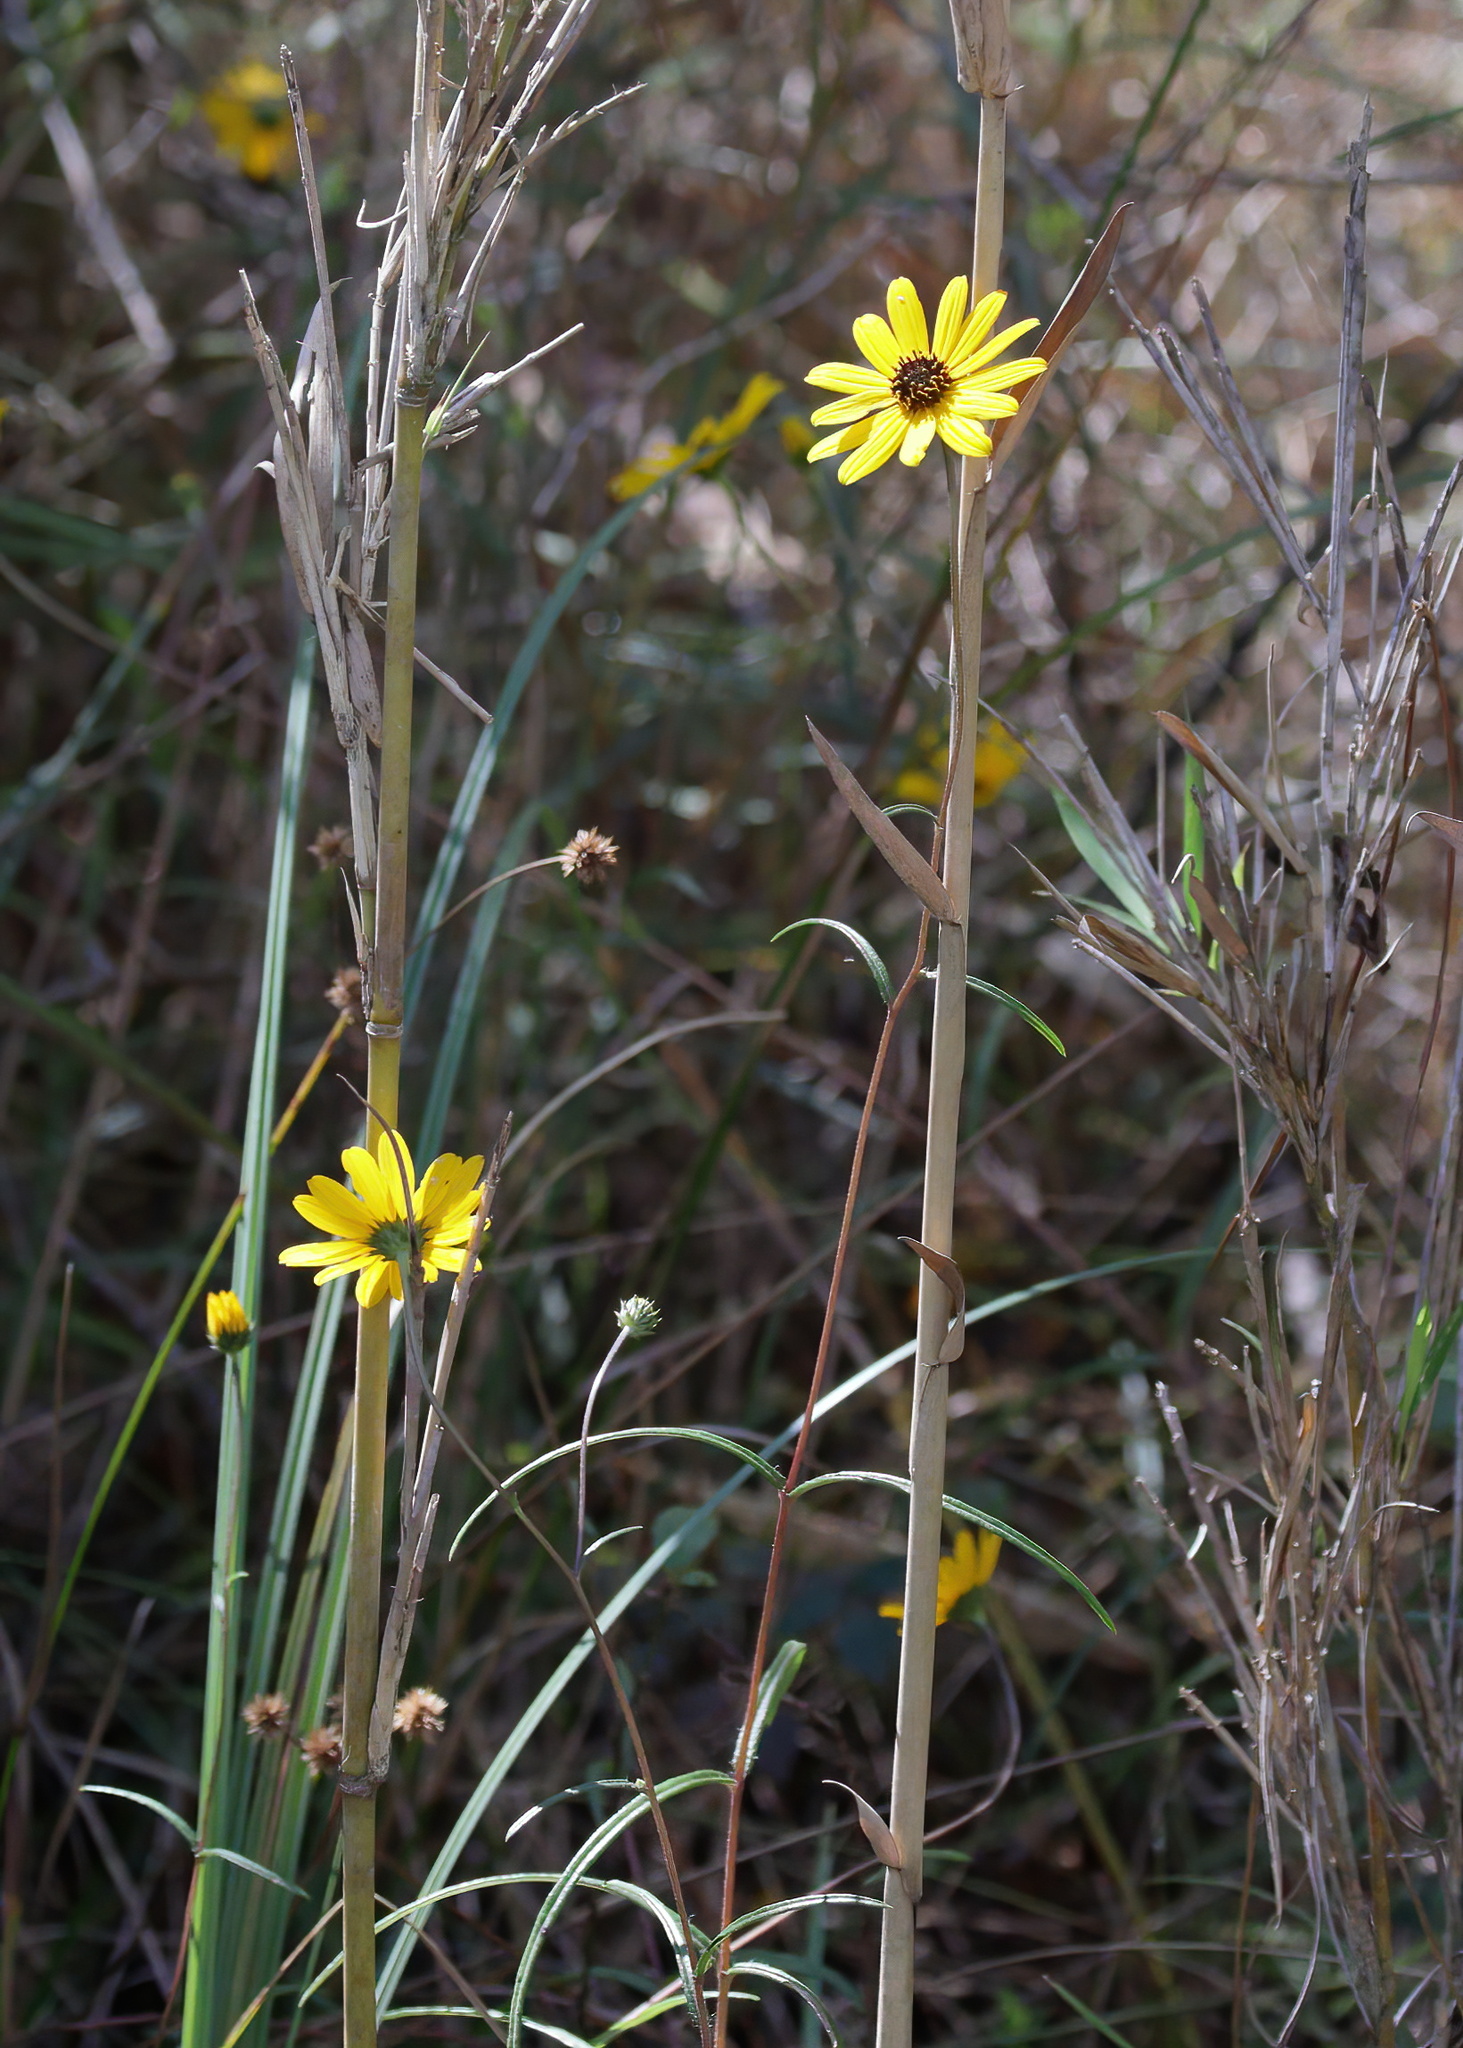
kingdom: Plantae
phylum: Tracheophyta
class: Magnoliopsida
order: Asterales
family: Asteraceae
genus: Helianthus
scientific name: Helianthus angustifolius
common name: Swamp sunflower
